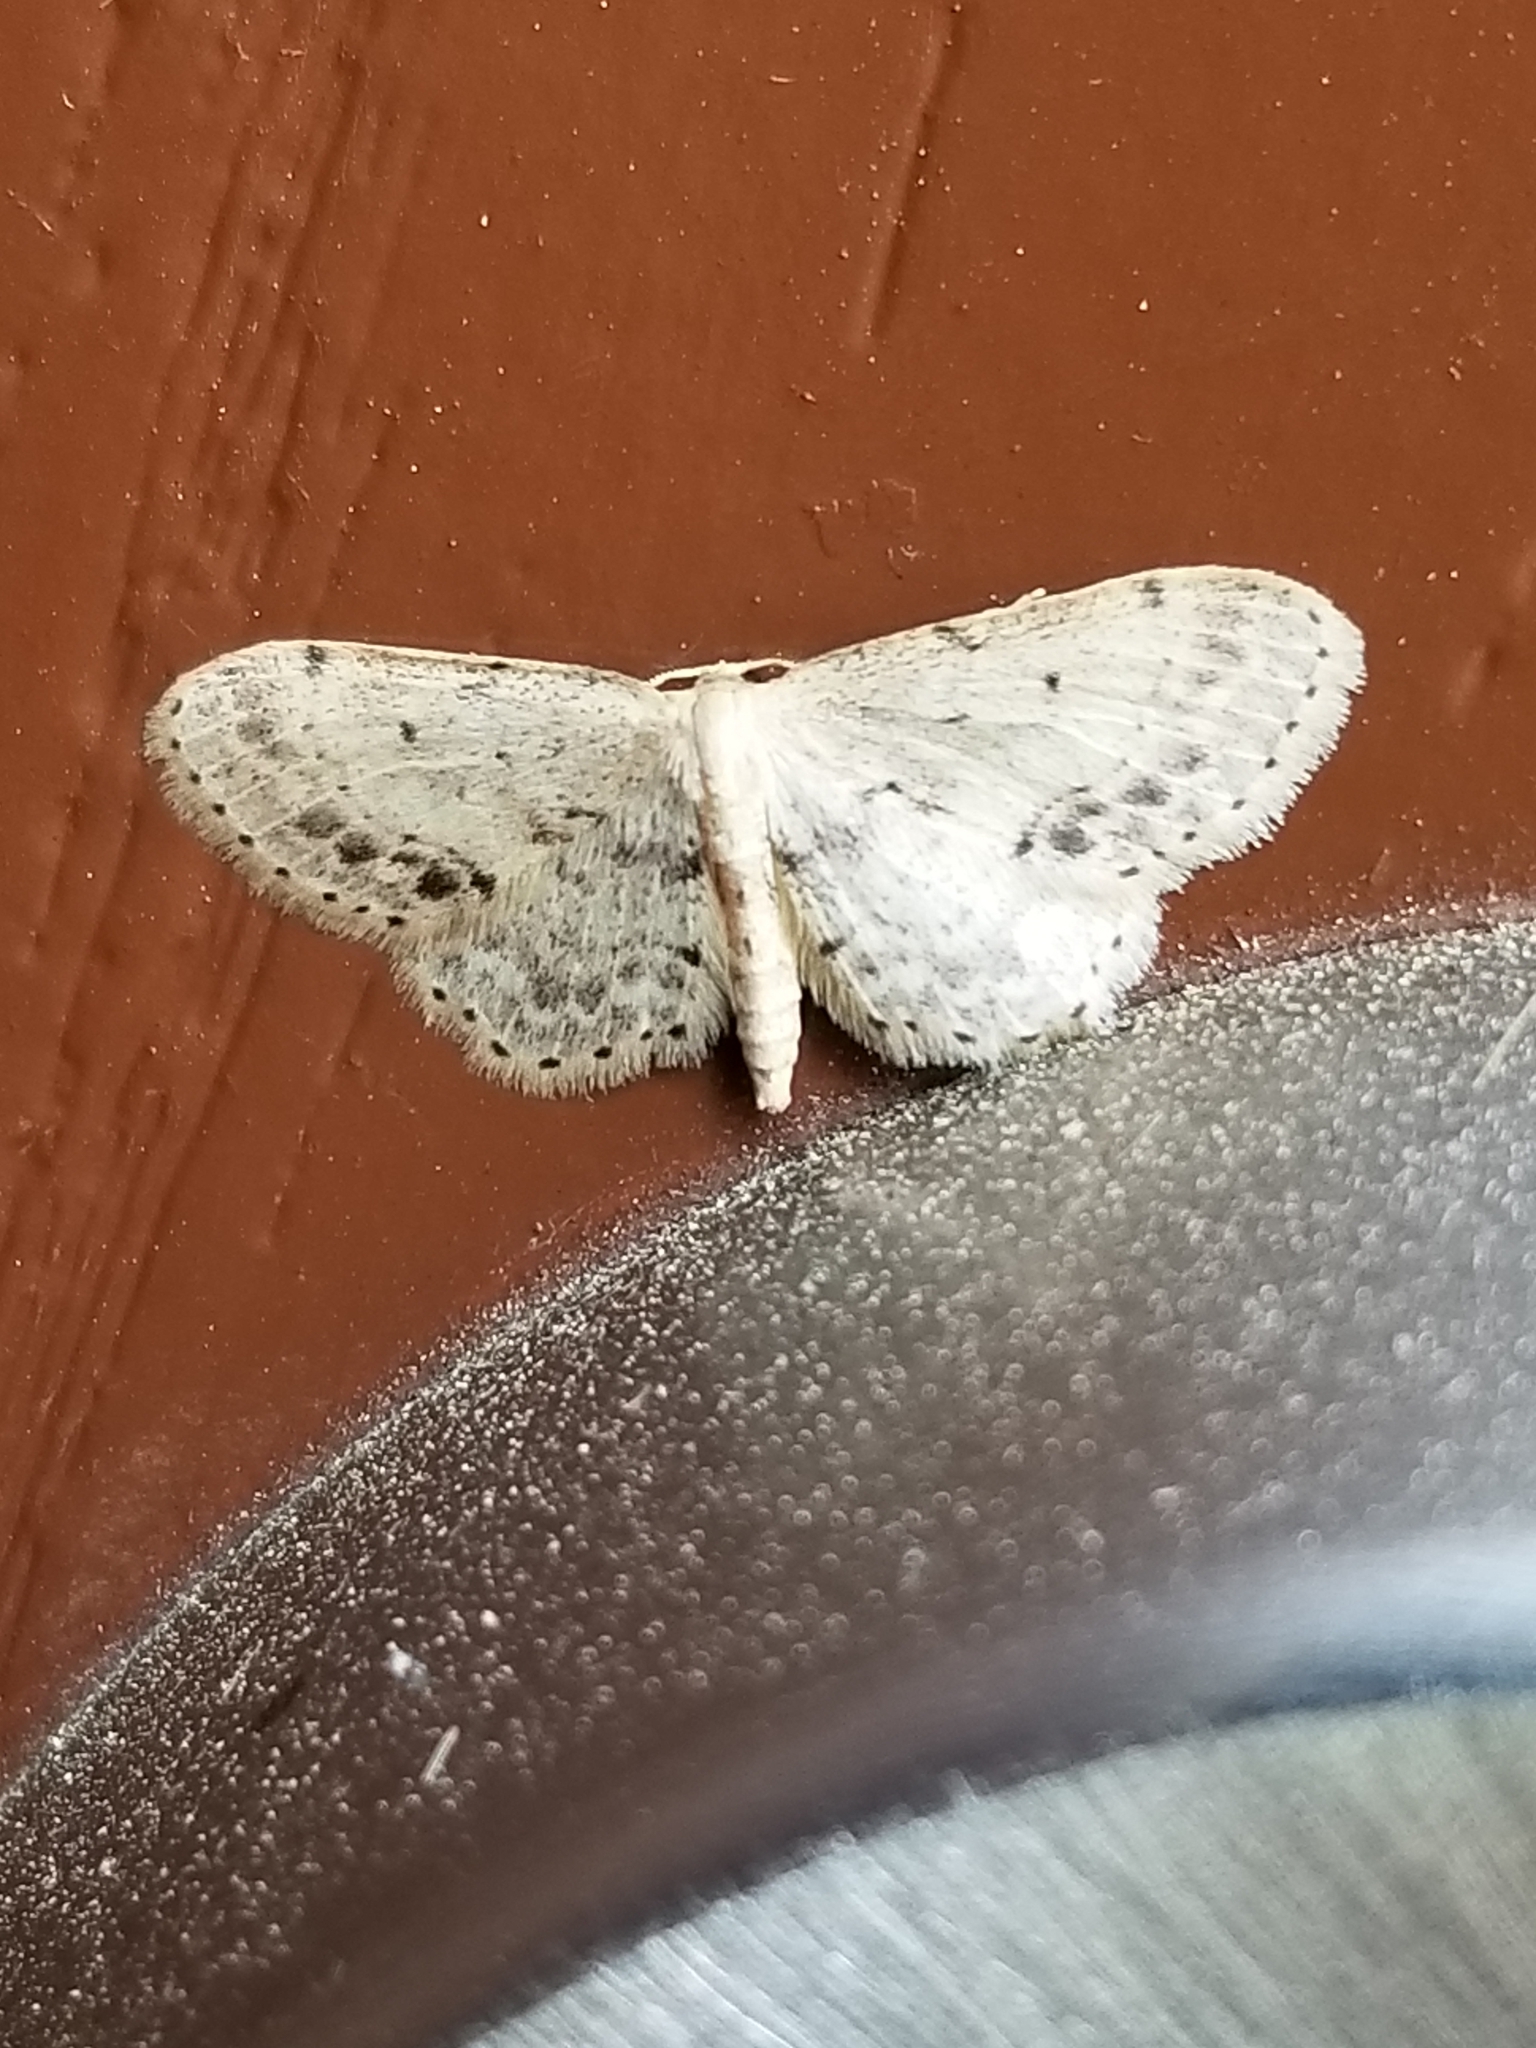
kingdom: Animalia
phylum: Arthropoda
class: Insecta
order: Lepidoptera
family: Geometridae
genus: Idaea
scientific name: Idaea dimidiata
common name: Single-dotted wave
